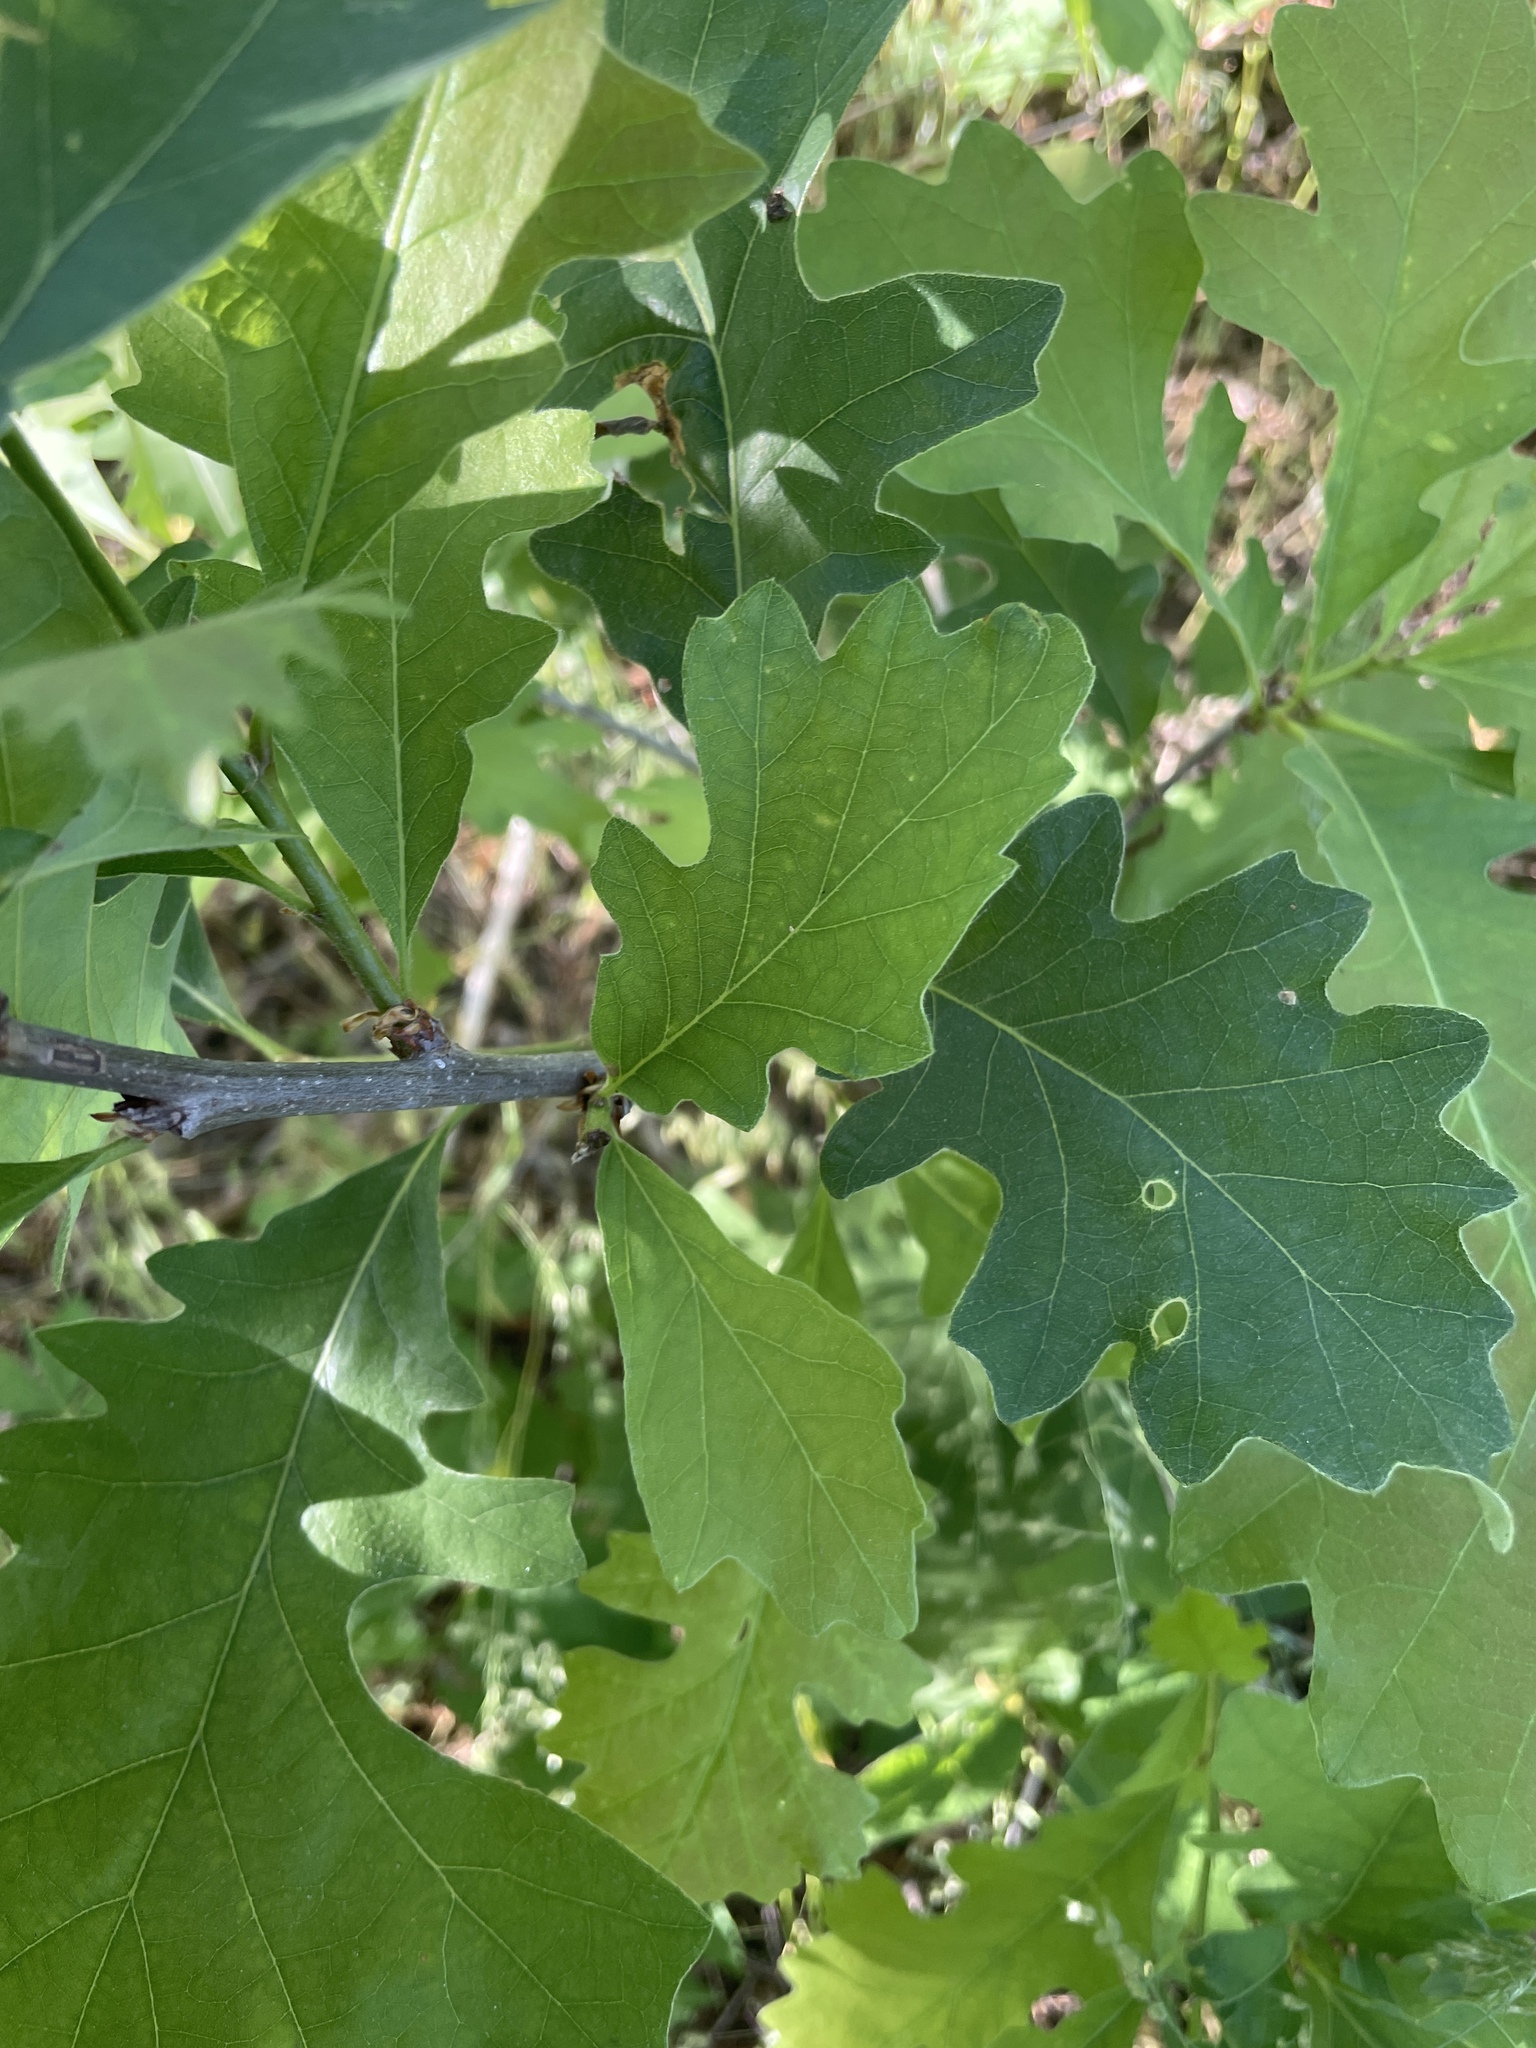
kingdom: Plantae
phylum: Tracheophyta
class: Magnoliopsida
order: Fagales
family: Fagaceae
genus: Quercus
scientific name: Quercus macrocarpa
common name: Bur oak
